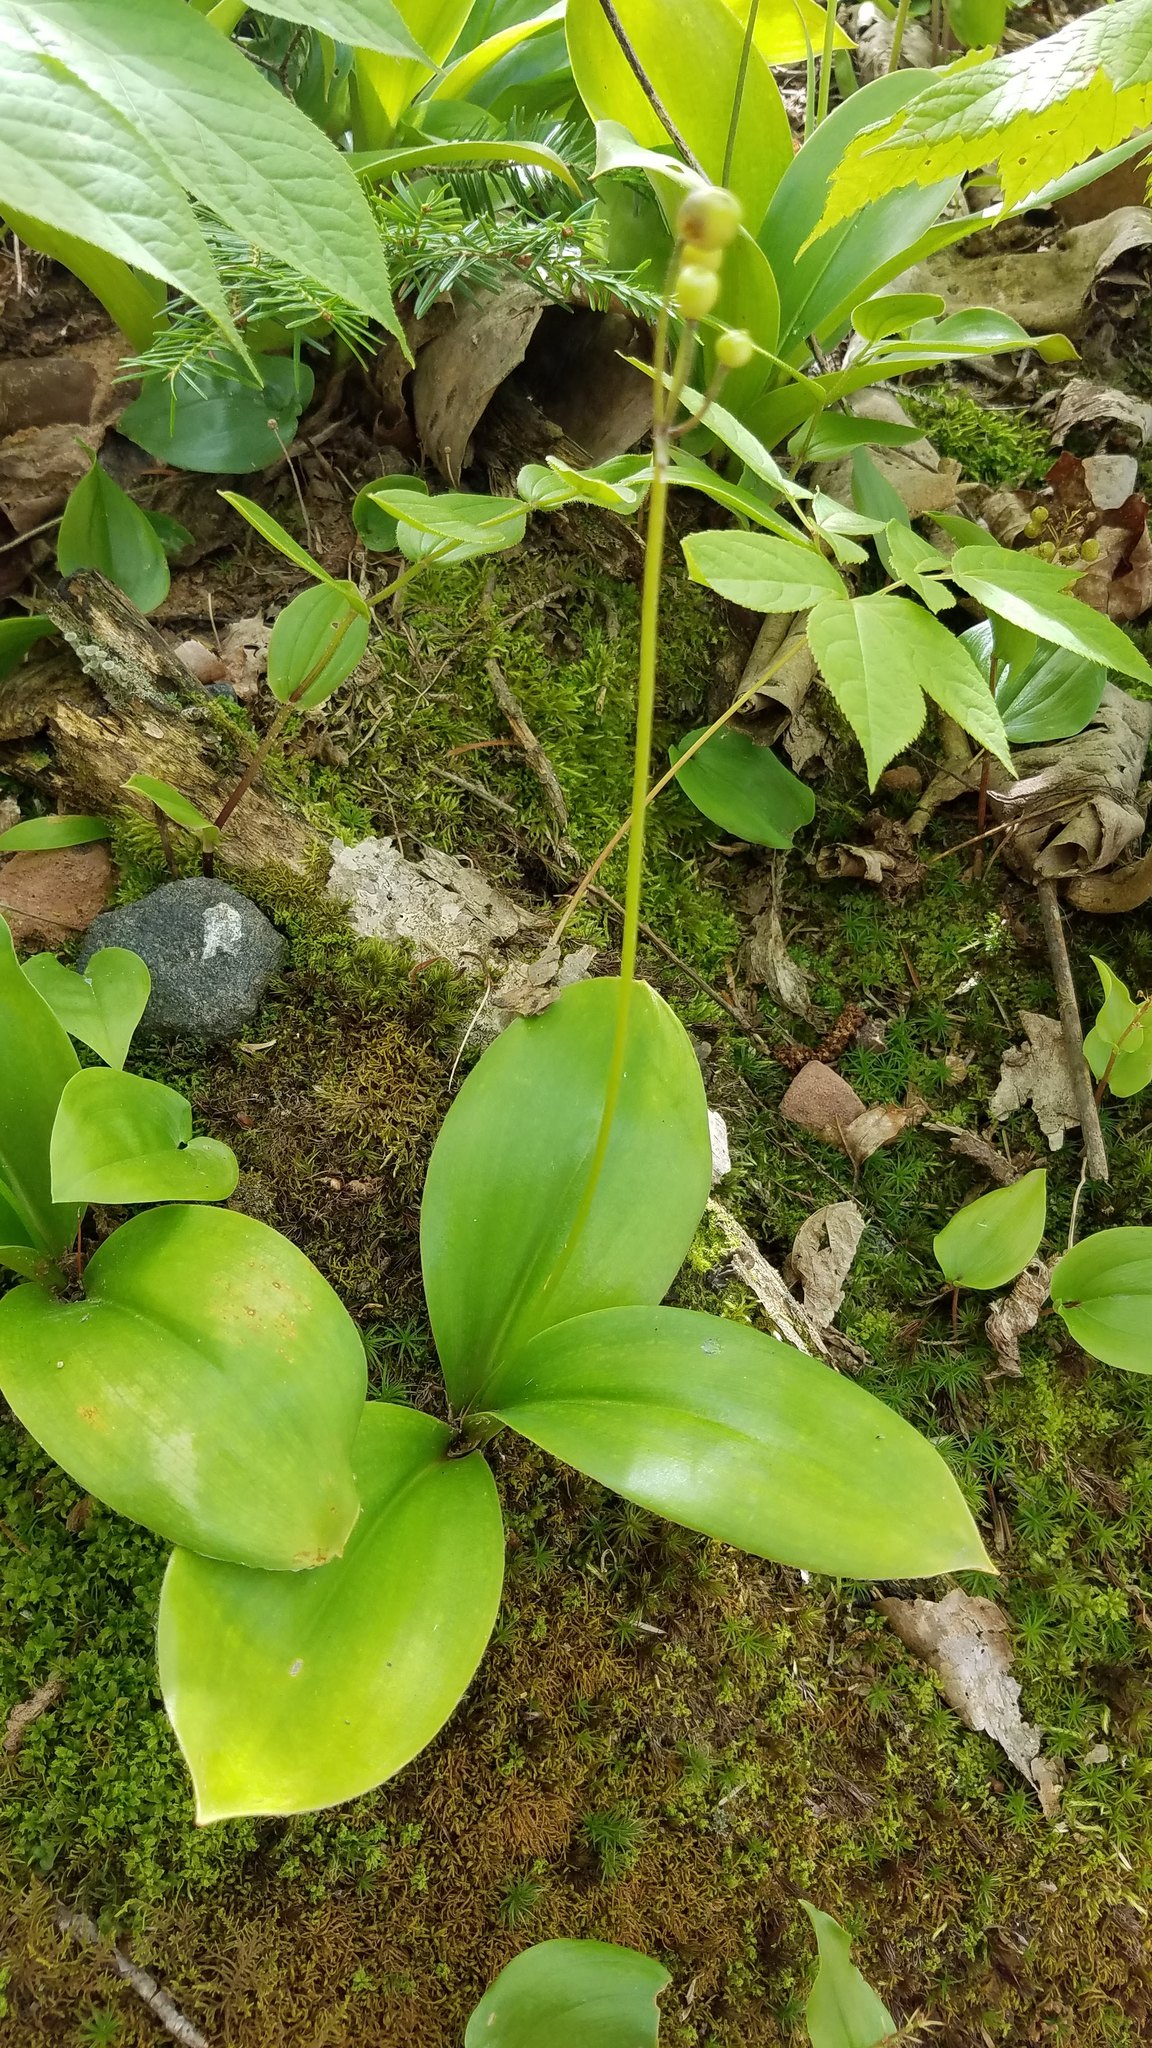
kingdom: Plantae
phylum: Tracheophyta
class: Liliopsida
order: Liliales
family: Liliaceae
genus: Clintonia
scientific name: Clintonia borealis
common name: Yellow clintonia
